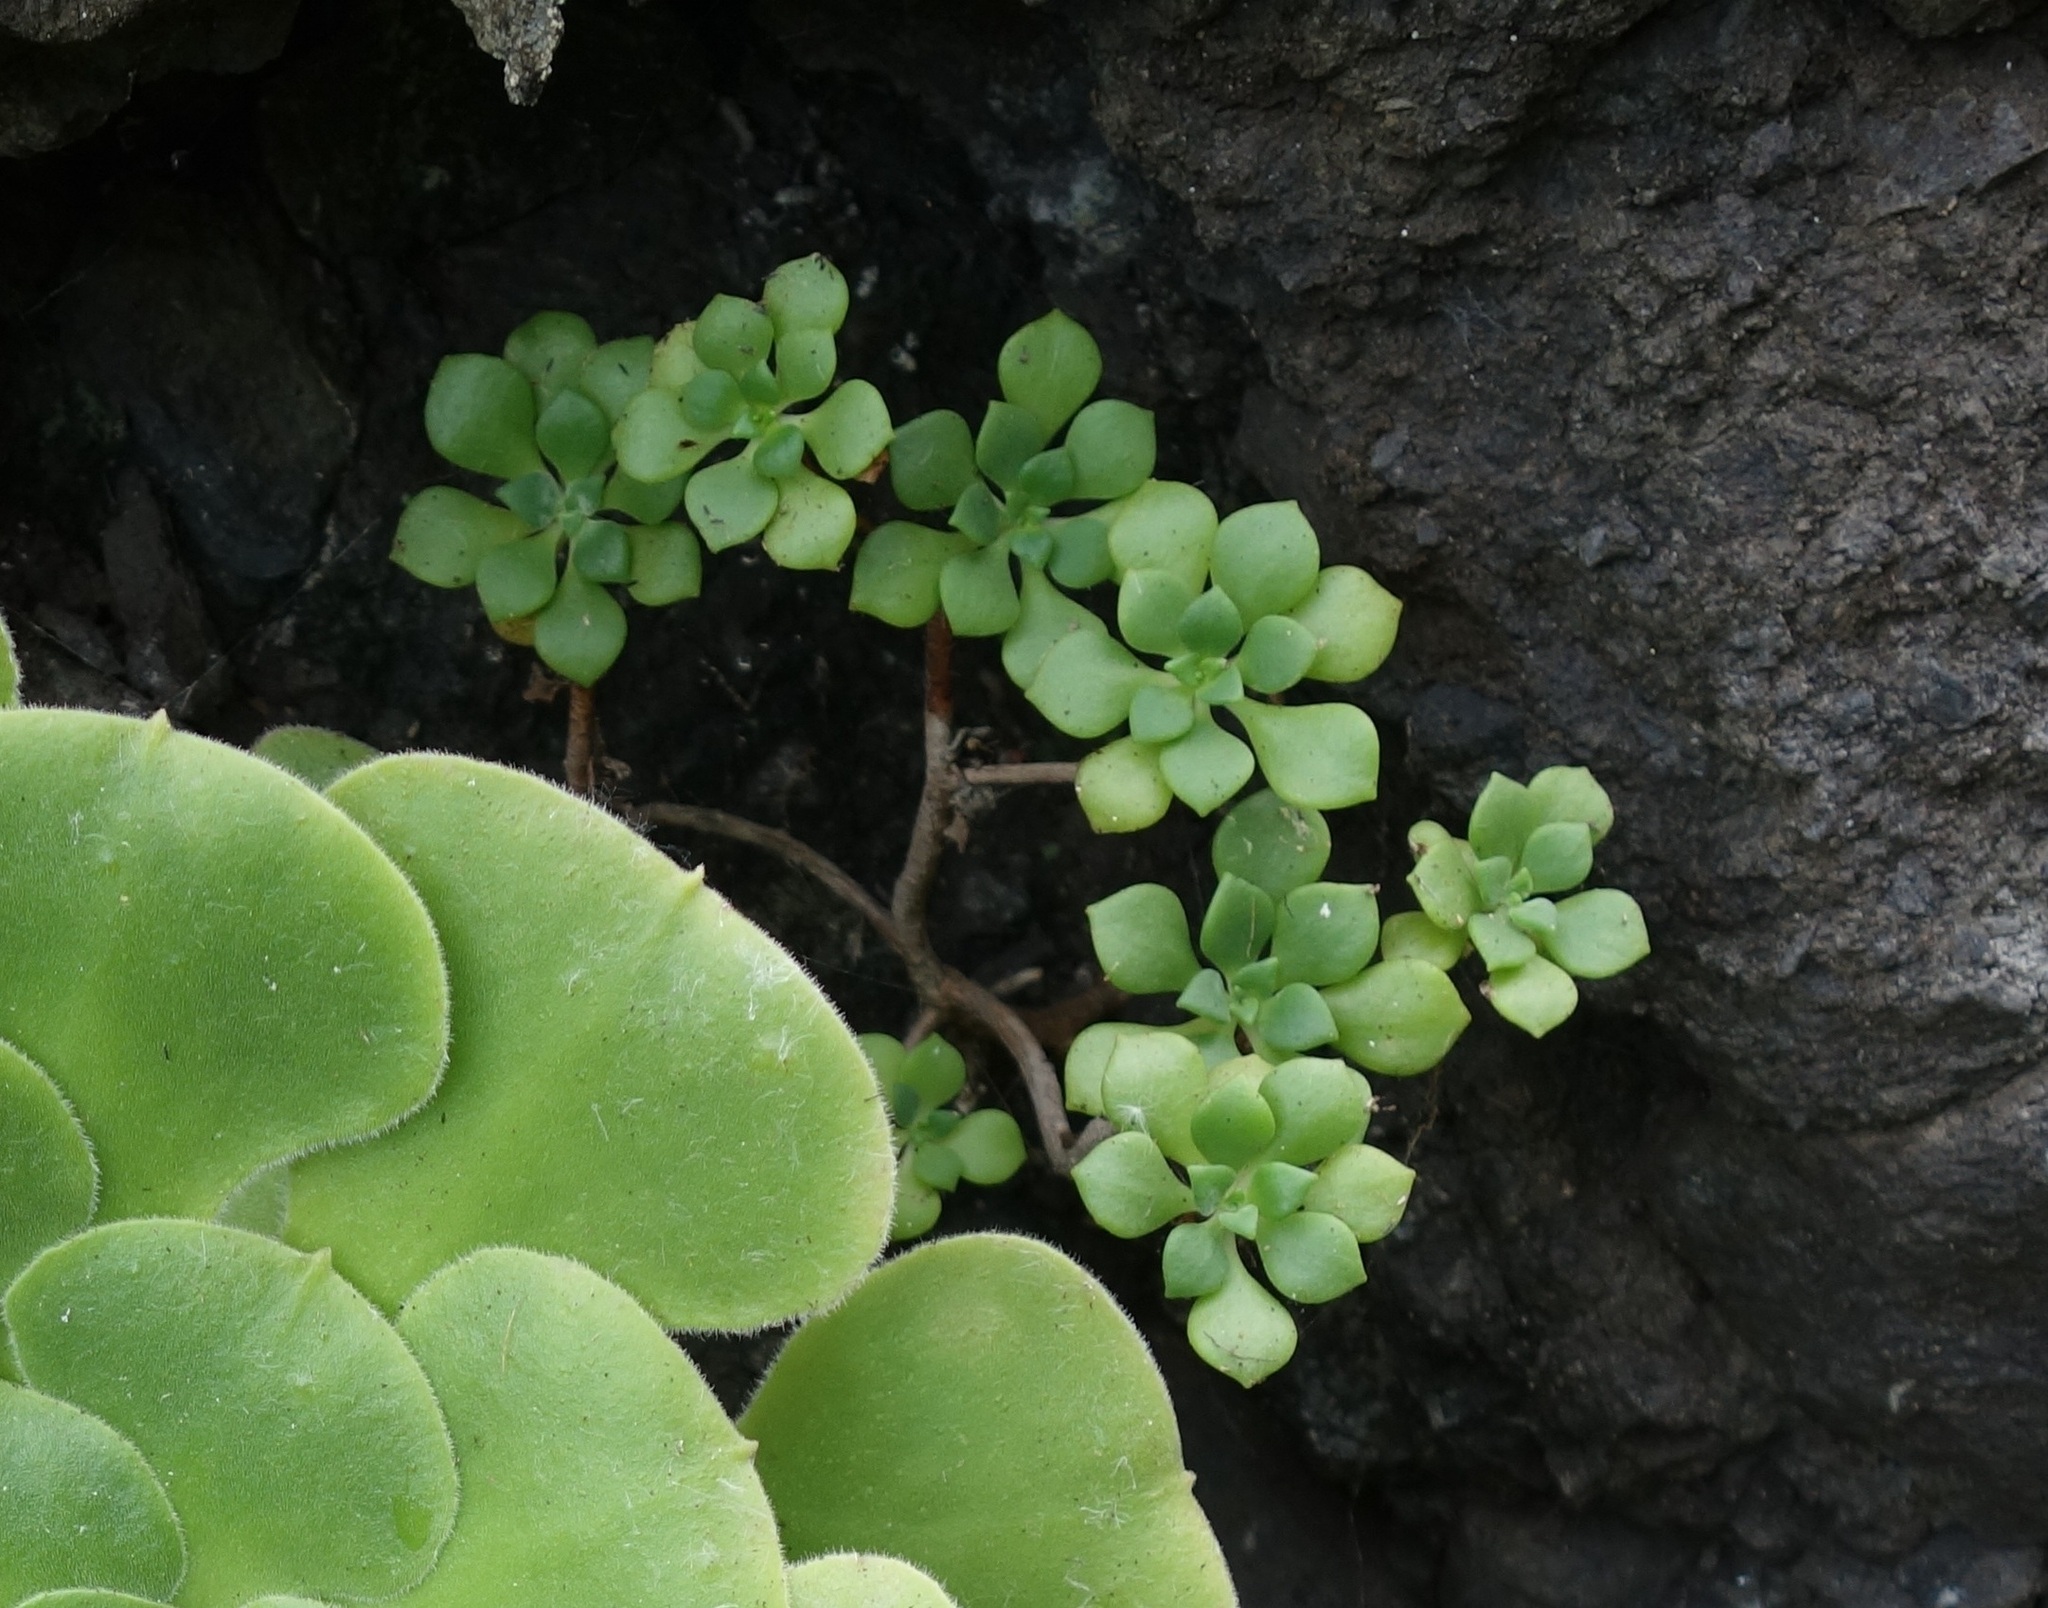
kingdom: Plantae
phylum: Tracheophyta
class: Magnoliopsida
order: Saxifragales
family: Crassulaceae
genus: Aeonium
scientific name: Aeonium lindleyi
